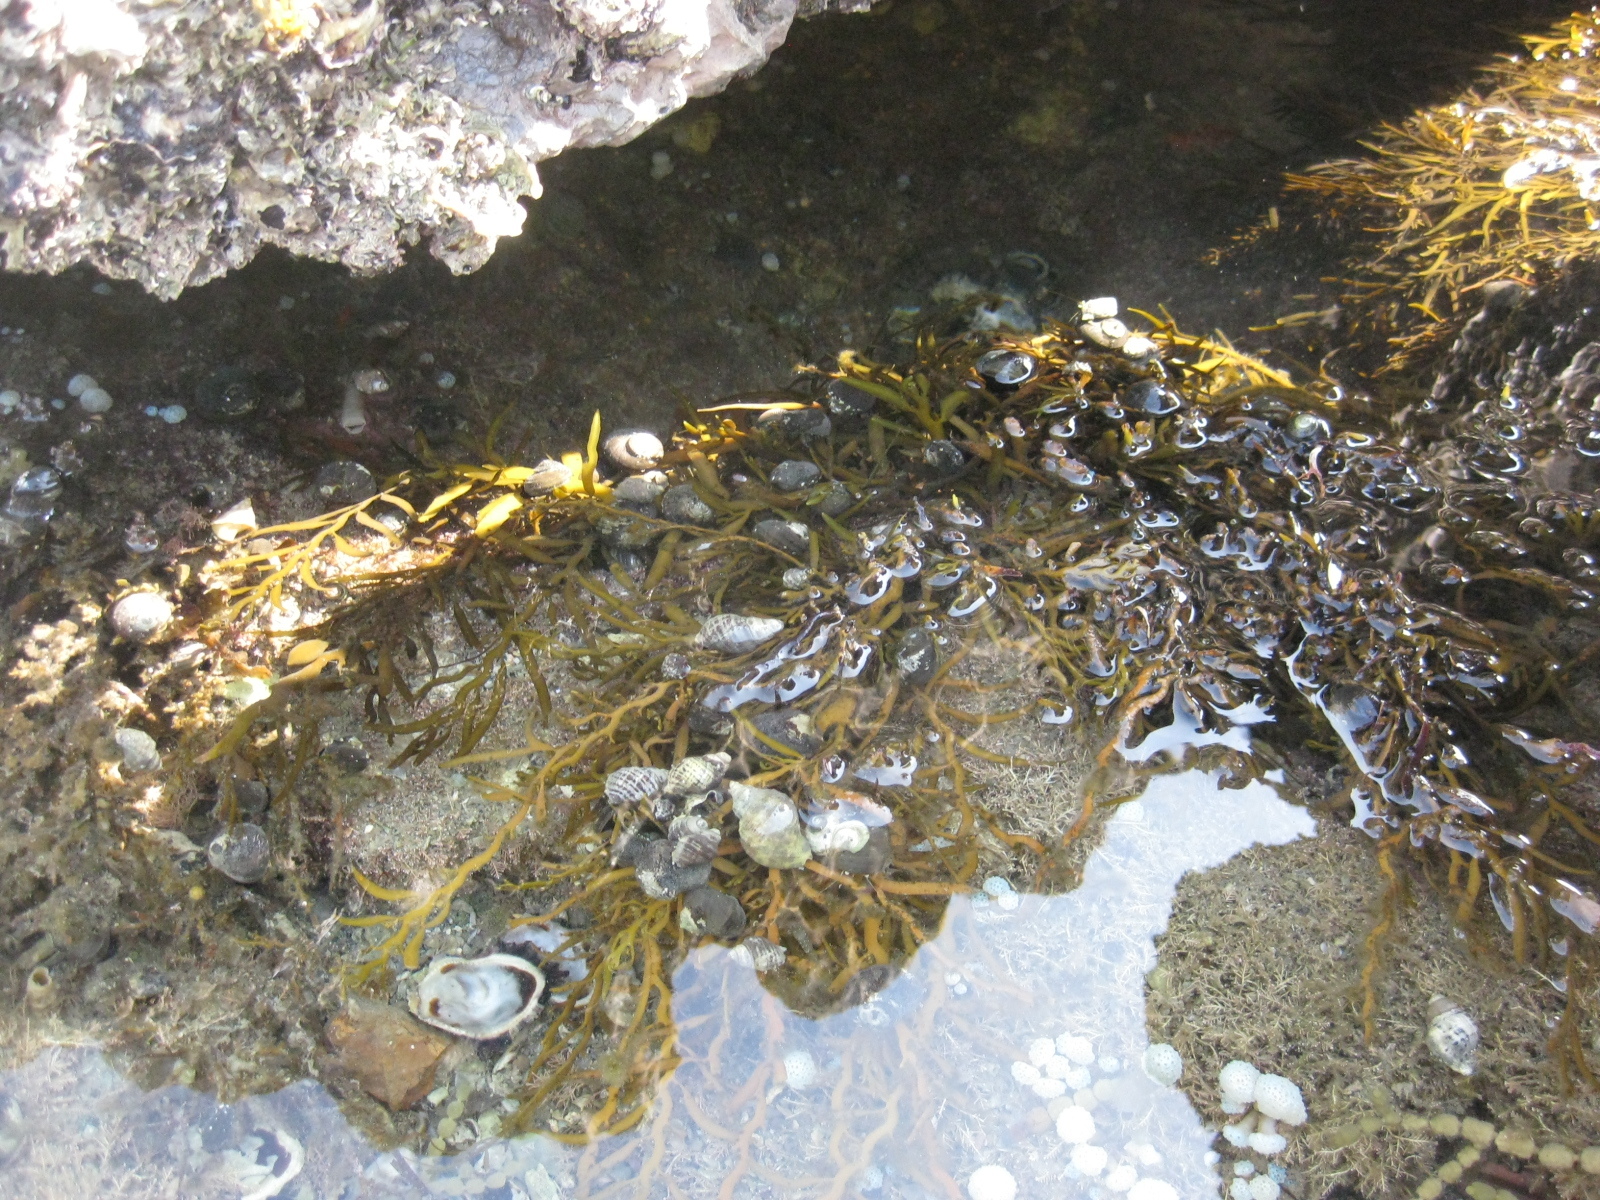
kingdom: Animalia
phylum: Arthropoda
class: Malacostraca
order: Decapoda
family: Paguridae
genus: Pagurus
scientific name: Pagurus novizealandiae
